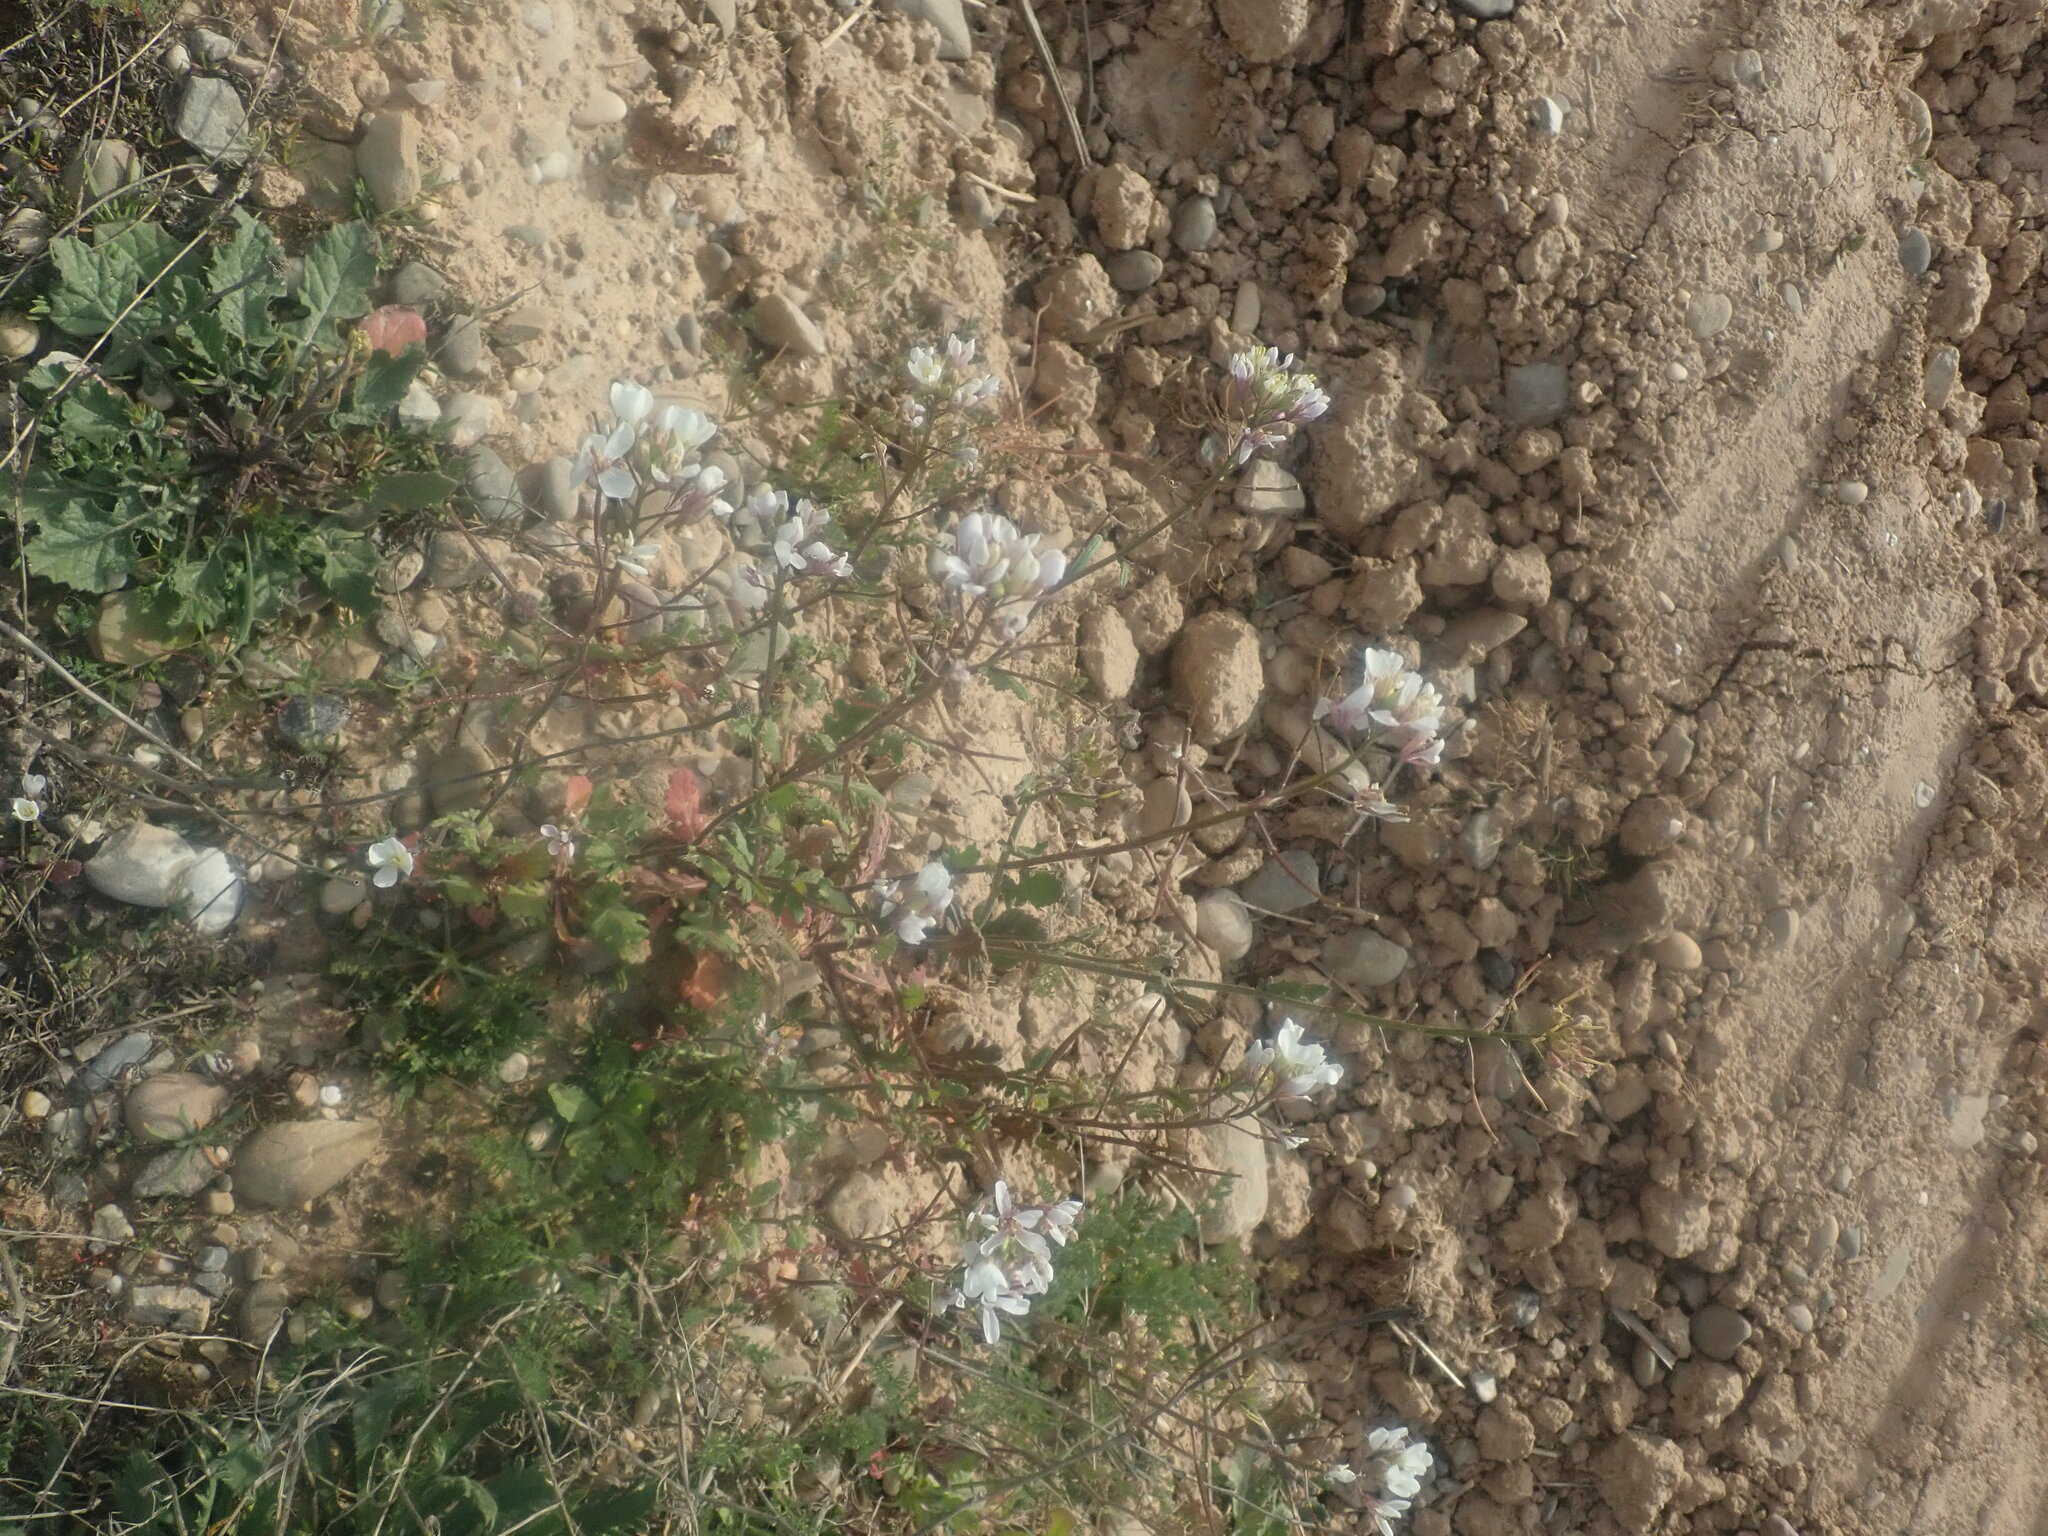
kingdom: Plantae
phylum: Tracheophyta
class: Magnoliopsida
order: Brassicales
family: Brassicaceae
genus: Diplotaxis
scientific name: Diplotaxis erucoides
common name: White rocket
